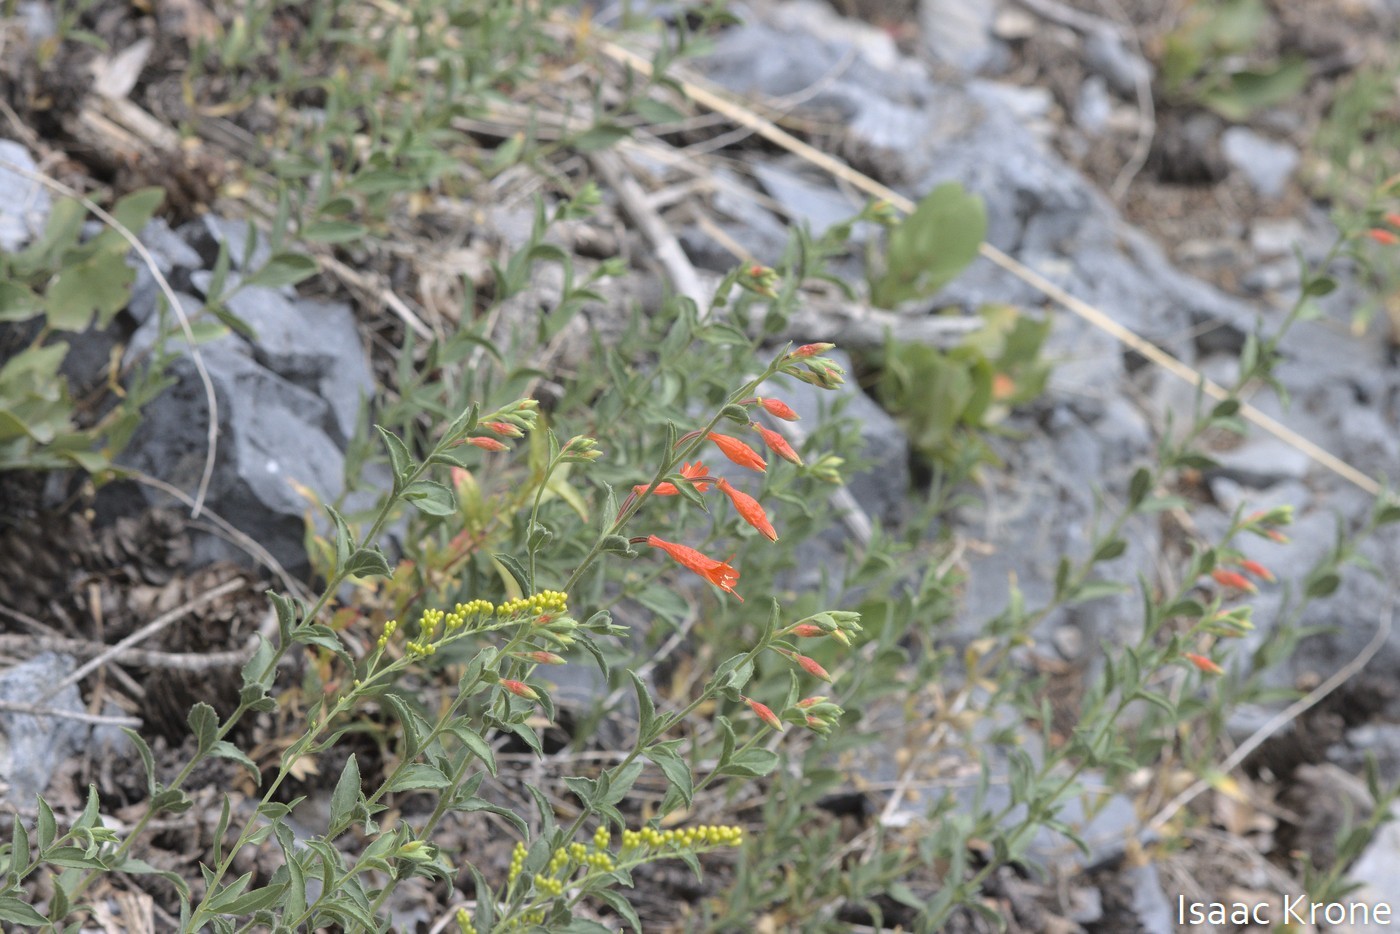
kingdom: Plantae
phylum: Tracheophyta
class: Magnoliopsida
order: Myrtales
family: Onagraceae
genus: Epilobium
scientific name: Epilobium canum
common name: California-fuchsia
